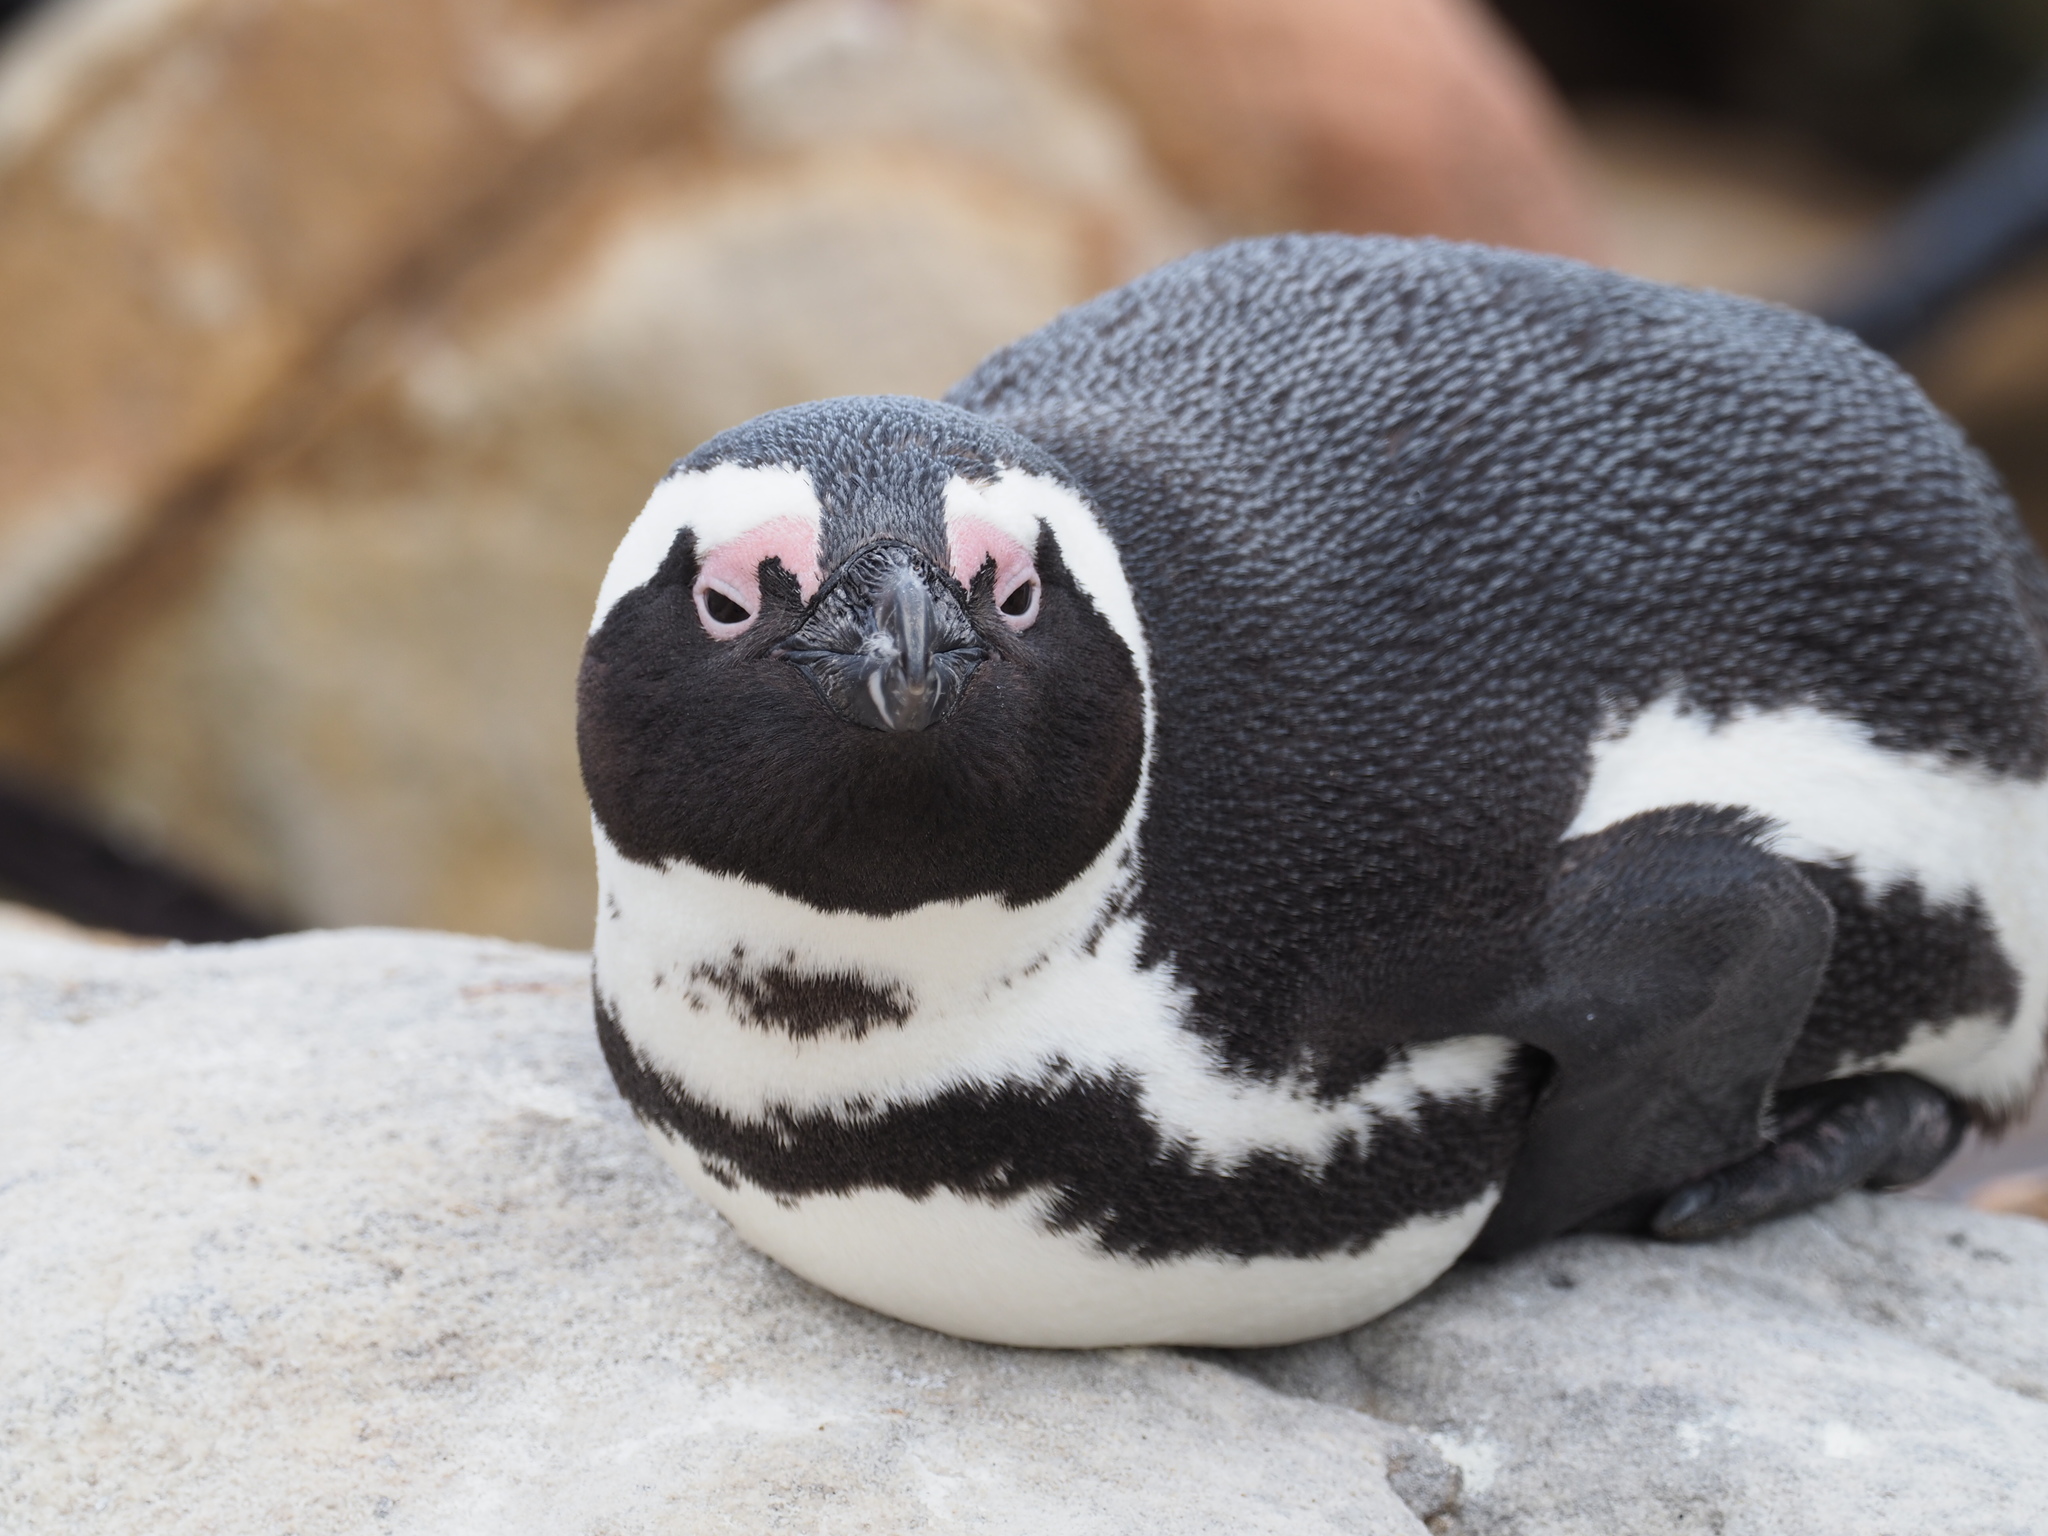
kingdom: Animalia
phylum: Chordata
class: Aves
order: Sphenisciformes
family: Spheniscidae
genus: Spheniscus
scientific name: Spheniscus demersus
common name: African penguin
